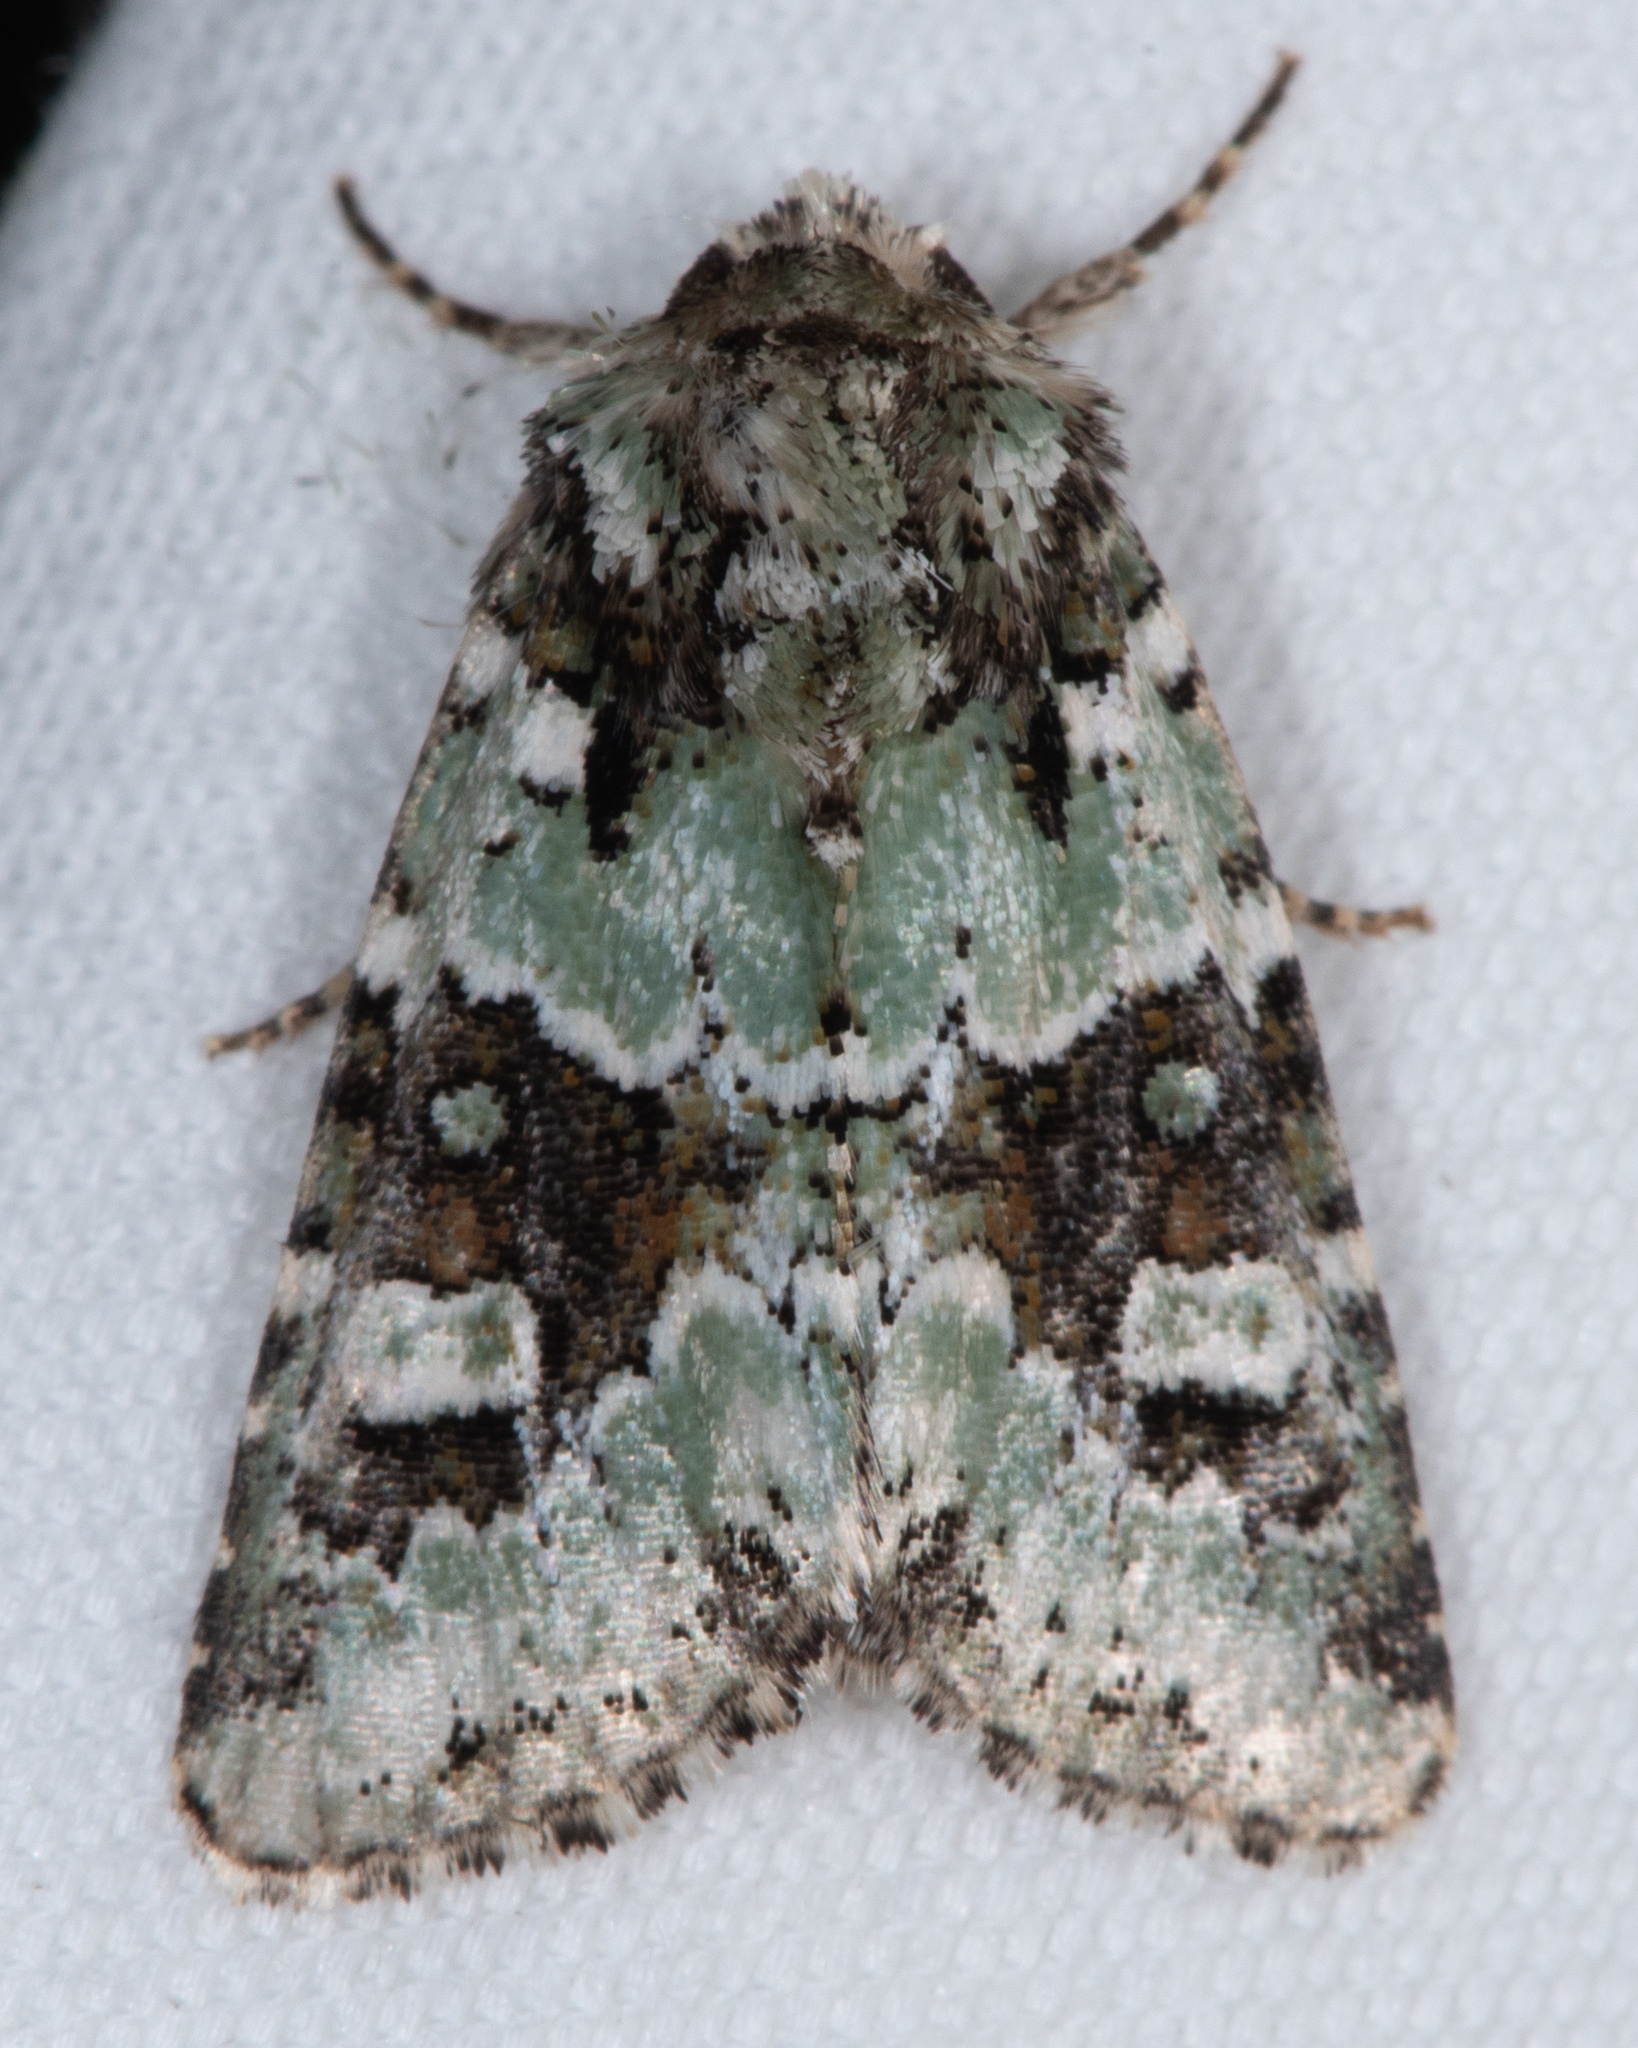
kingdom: Animalia
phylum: Arthropoda
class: Insecta
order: Lepidoptera
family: Noctuidae
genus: Lacinipolia
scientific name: Lacinipolia strigicollis
